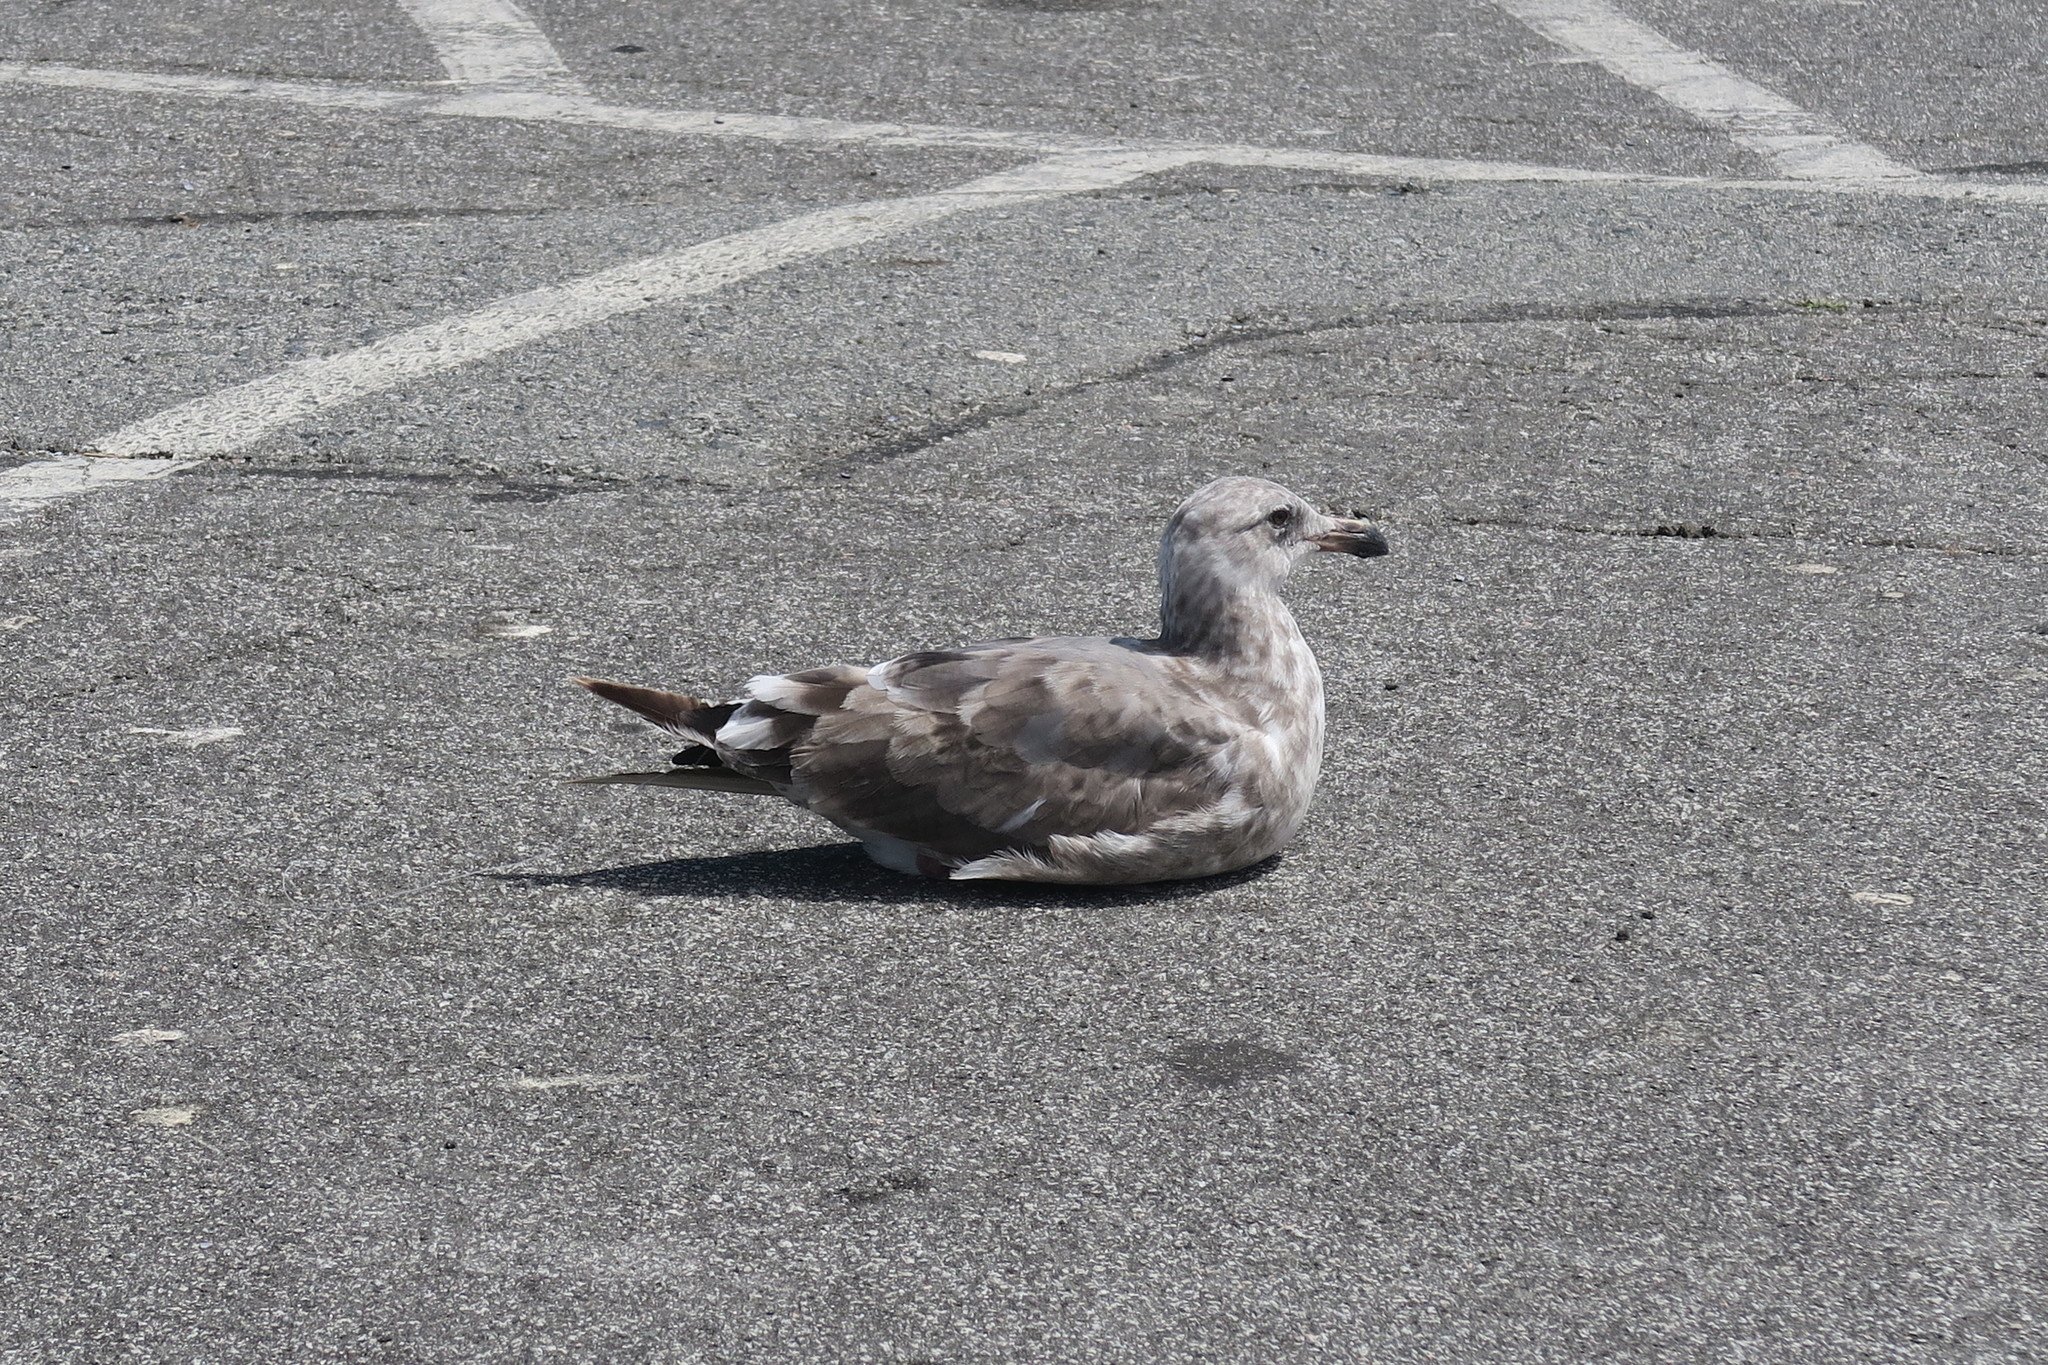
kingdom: Animalia
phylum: Chordata
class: Aves
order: Charadriiformes
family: Laridae
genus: Larus
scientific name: Larus occidentalis
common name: Western gull
